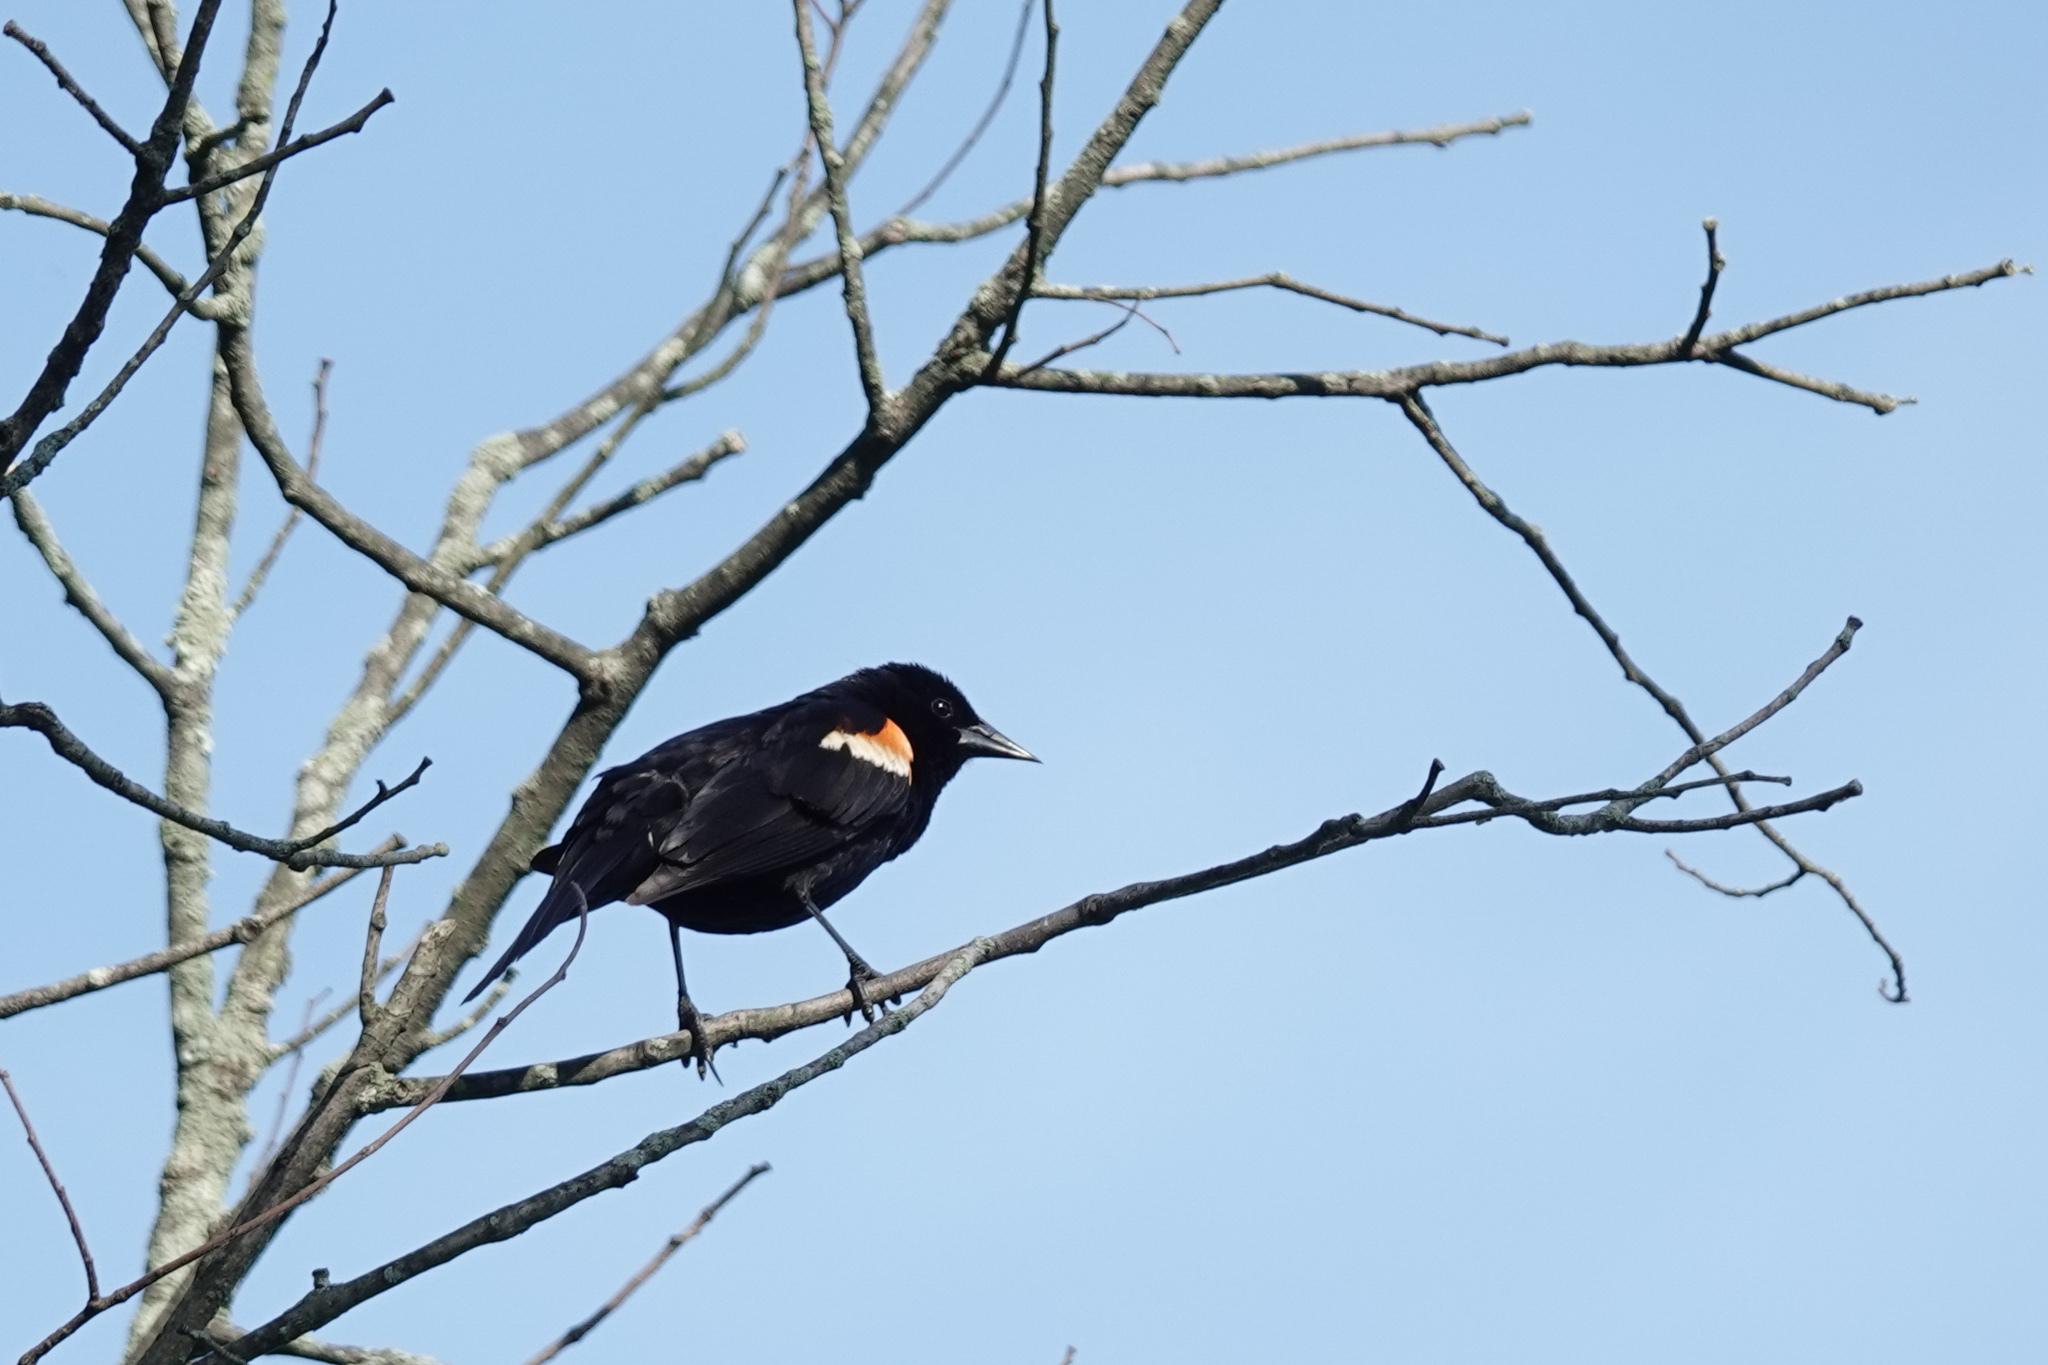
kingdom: Animalia
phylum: Chordata
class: Aves
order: Passeriformes
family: Icteridae
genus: Agelaius
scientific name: Agelaius phoeniceus
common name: Red-winged blackbird
